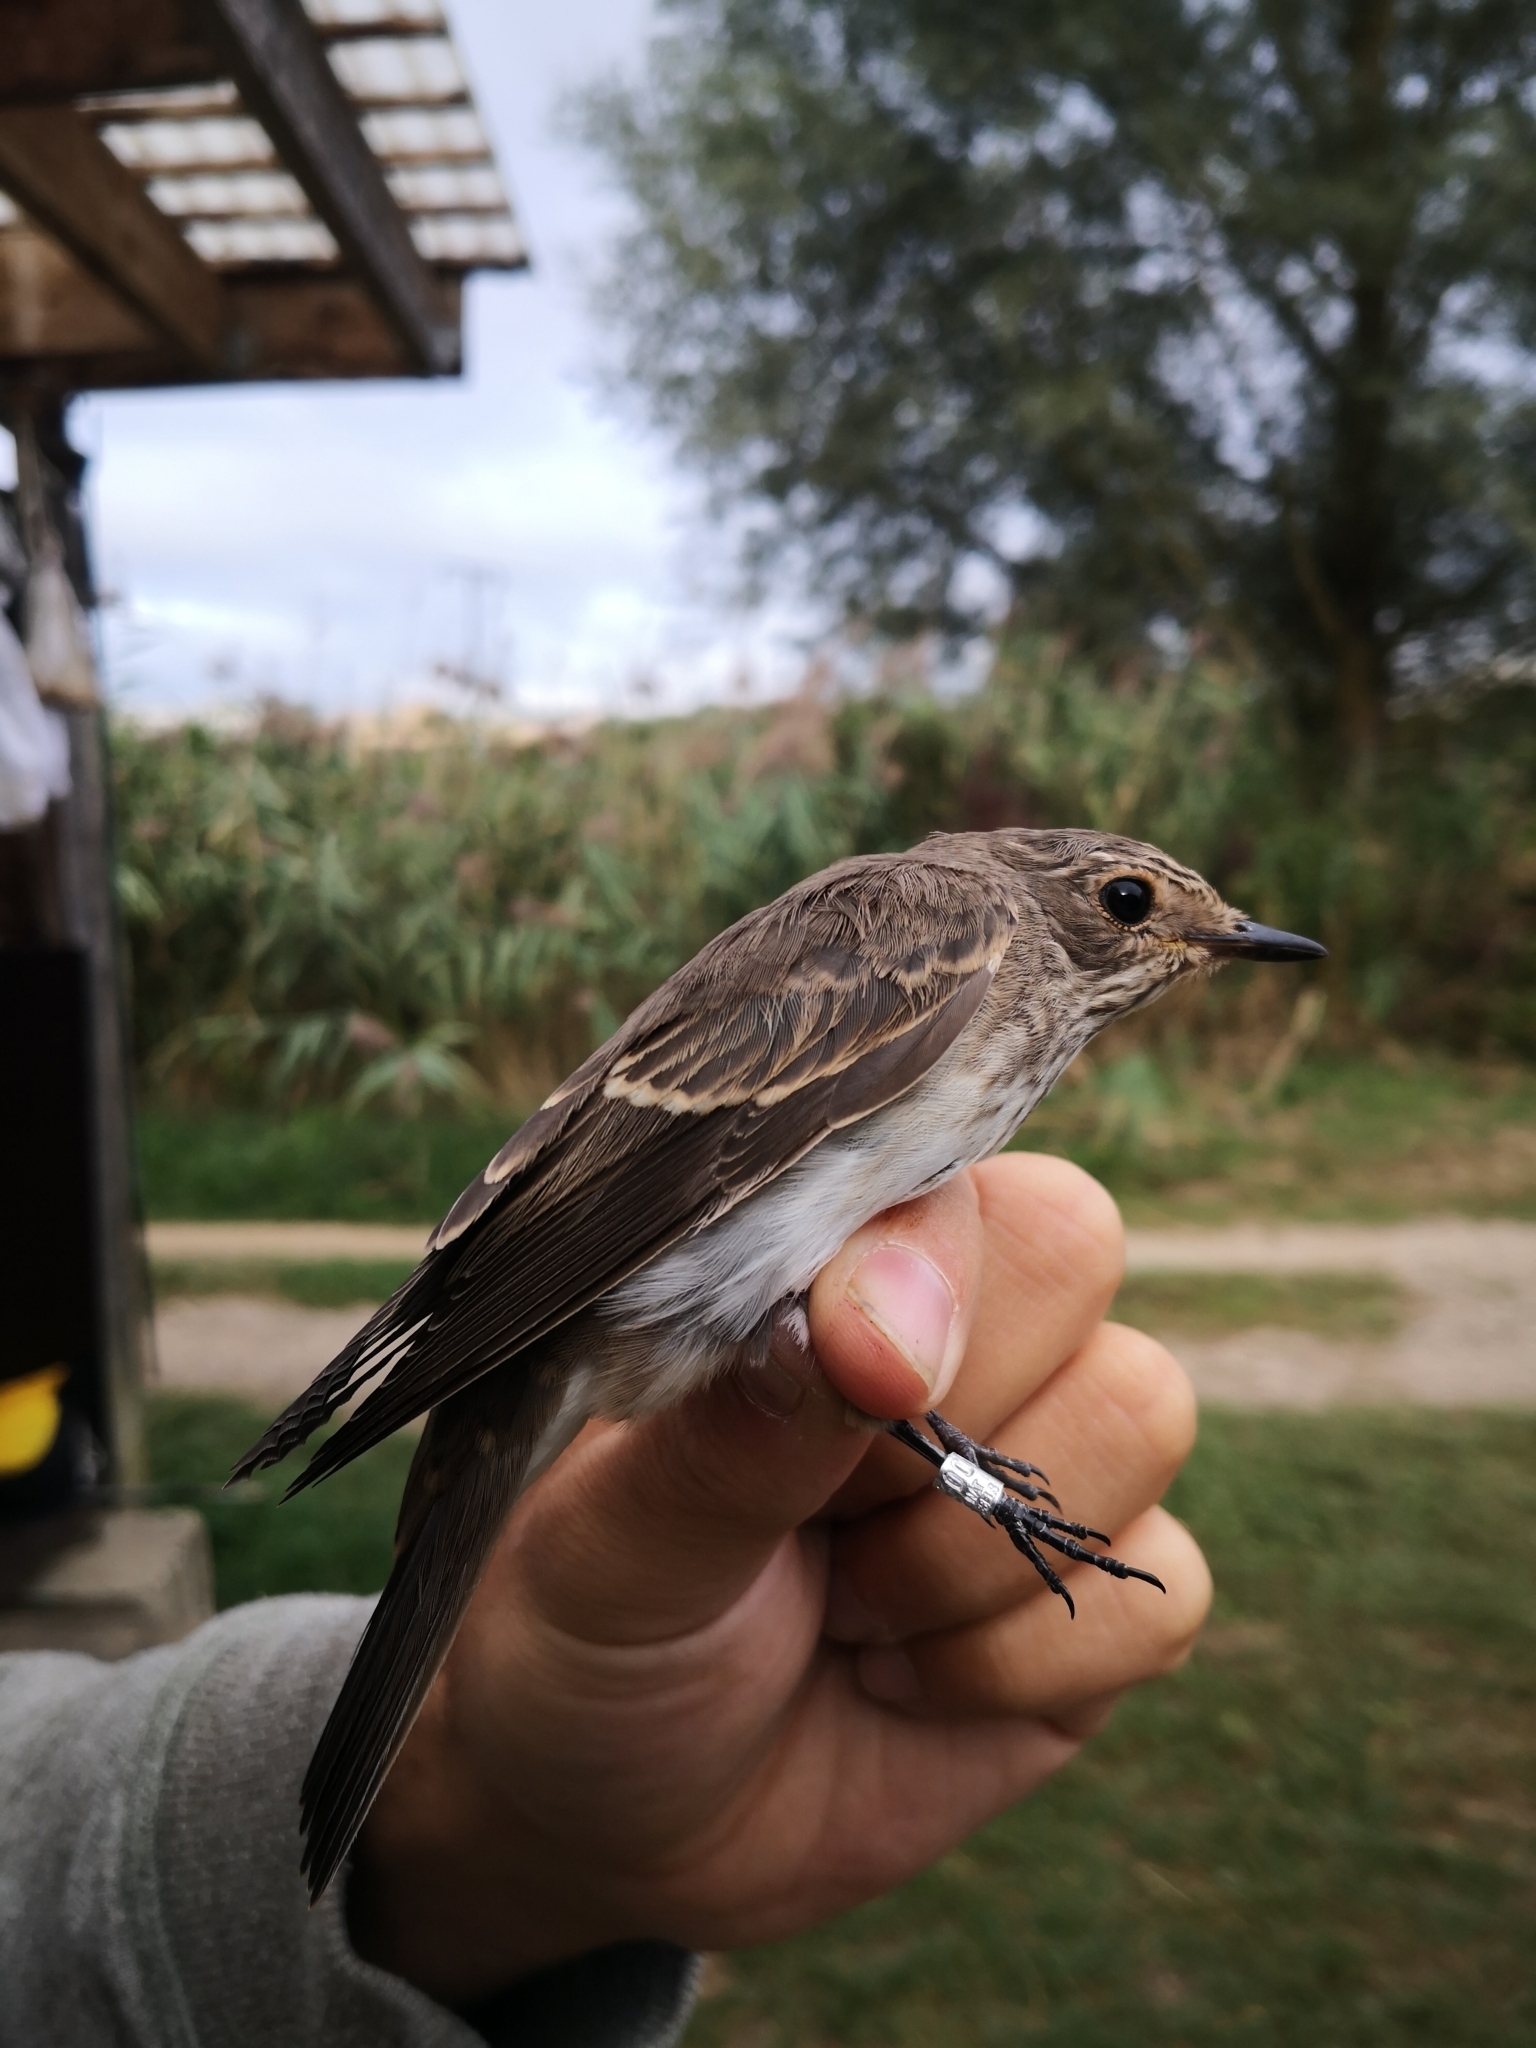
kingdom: Animalia
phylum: Chordata
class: Aves
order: Passeriformes
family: Muscicapidae
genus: Muscicapa
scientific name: Muscicapa striata
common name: Spotted flycatcher
